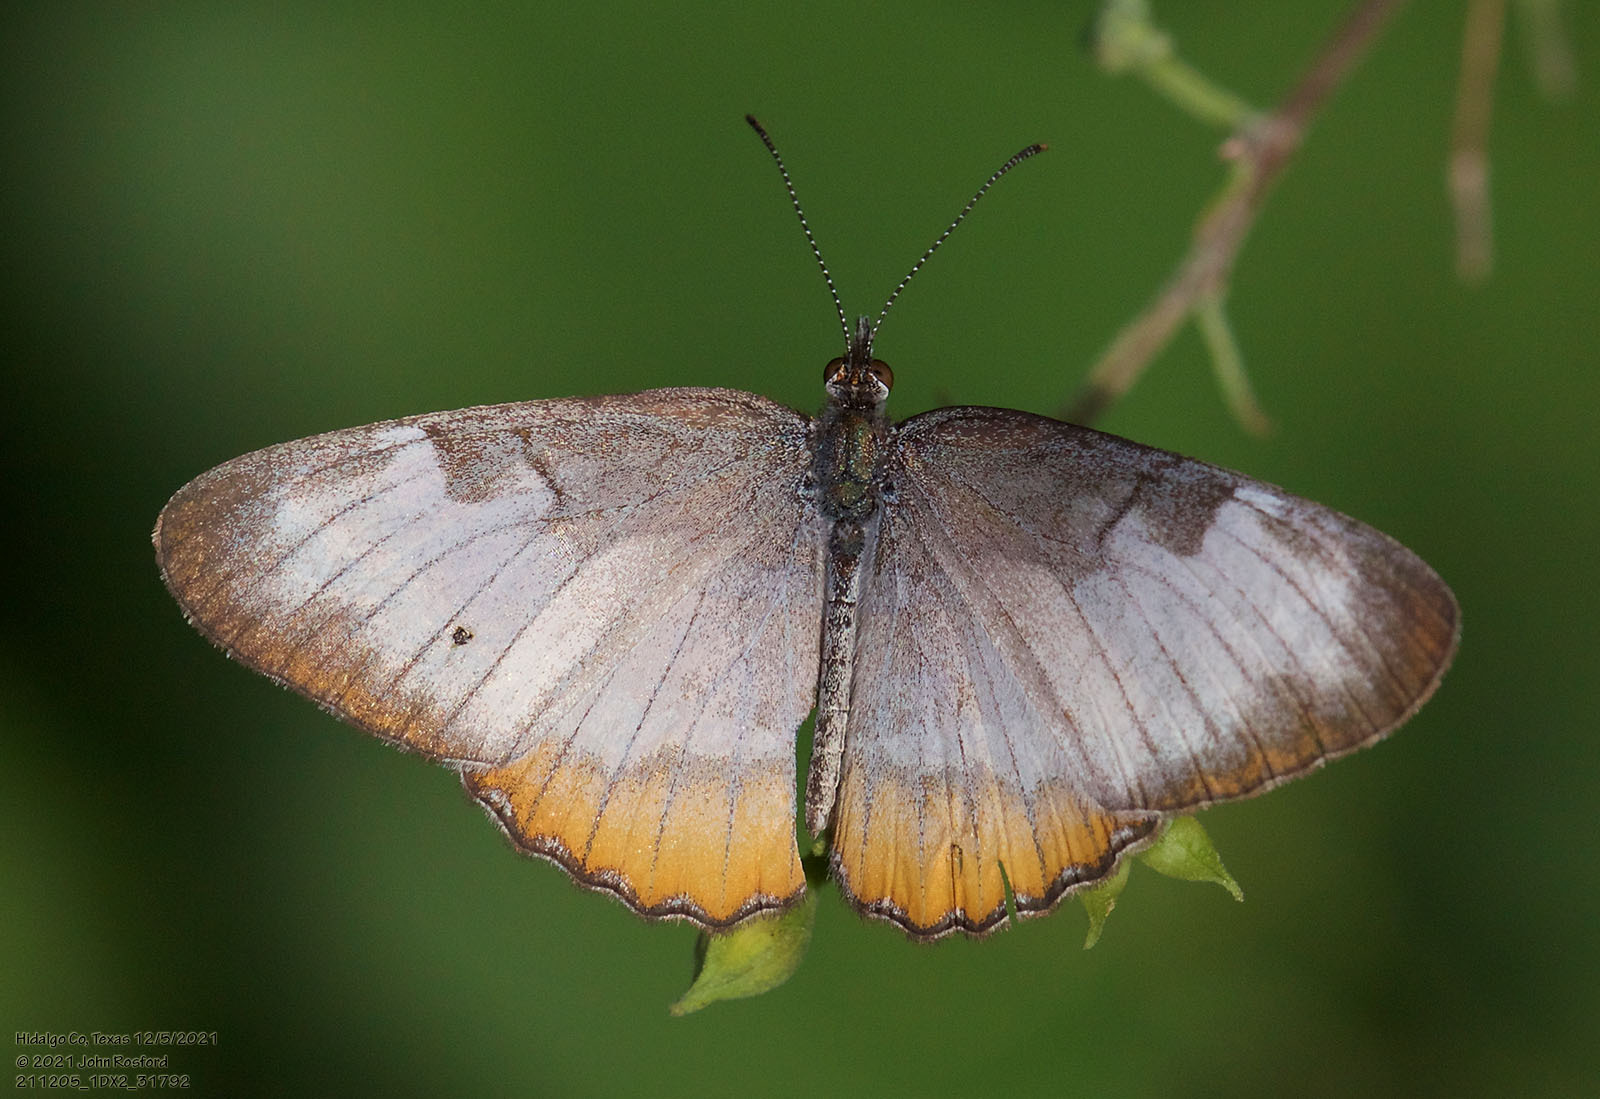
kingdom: Animalia
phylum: Arthropoda
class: Insecta
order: Lepidoptera
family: Nymphalidae
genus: Mestra
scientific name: Mestra amymone
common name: Common mestra
